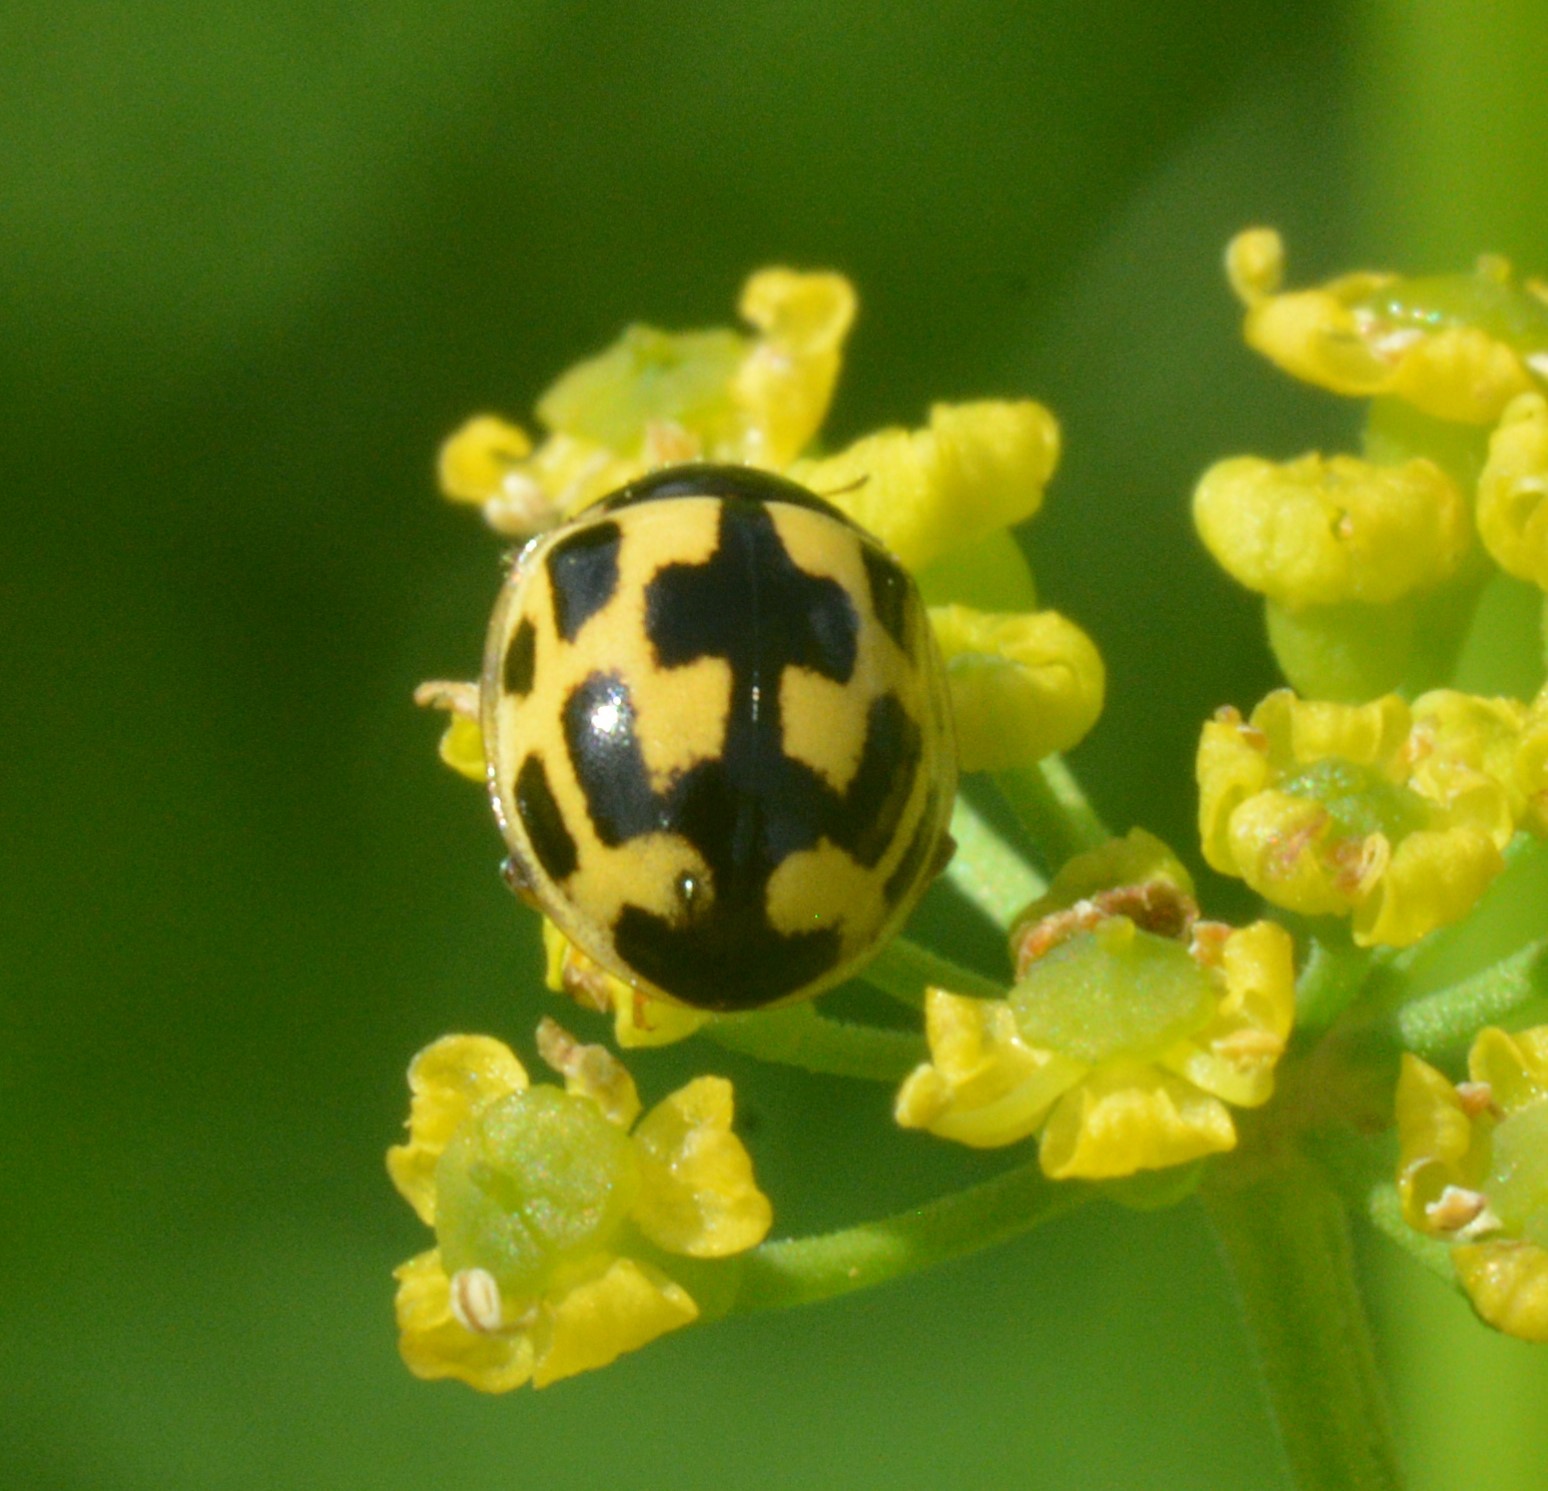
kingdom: Animalia
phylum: Arthropoda
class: Insecta
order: Coleoptera
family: Coccinellidae
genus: Propylaea
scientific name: Propylaea quatuordecimpunctata
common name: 14-spotted ladybird beetle
